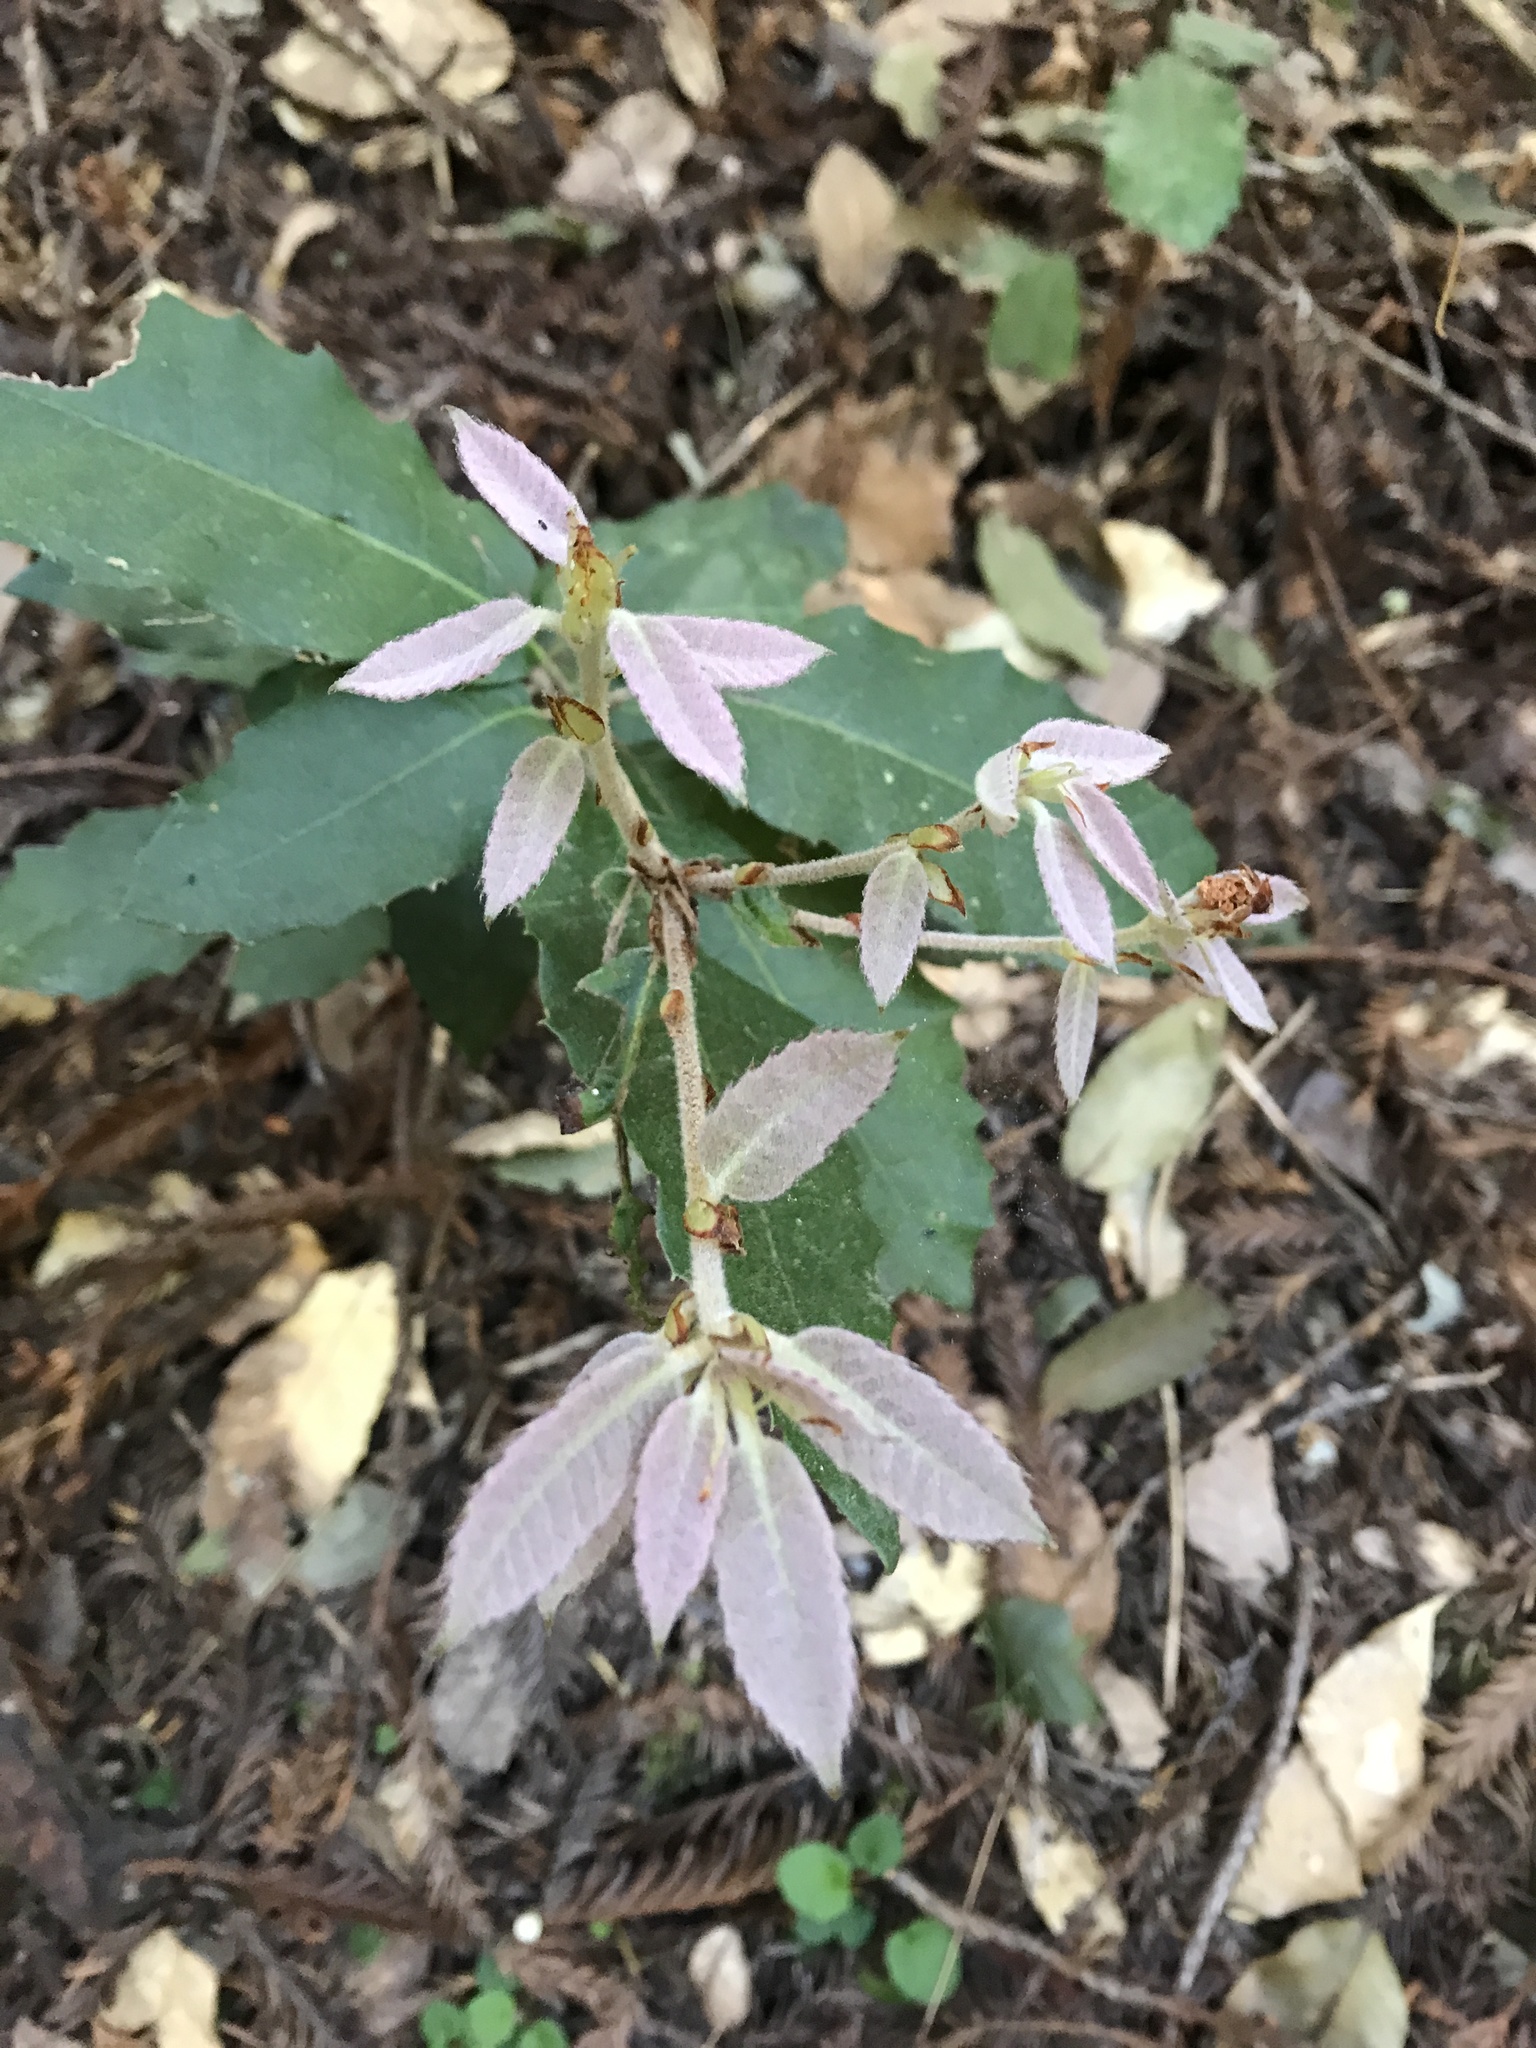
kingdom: Plantae
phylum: Tracheophyta
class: Magnoliopsida
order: Fagales
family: Fagaceae
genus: Notholithocarpus
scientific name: Notholithocarpus densiflorus
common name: Tan bark oak
